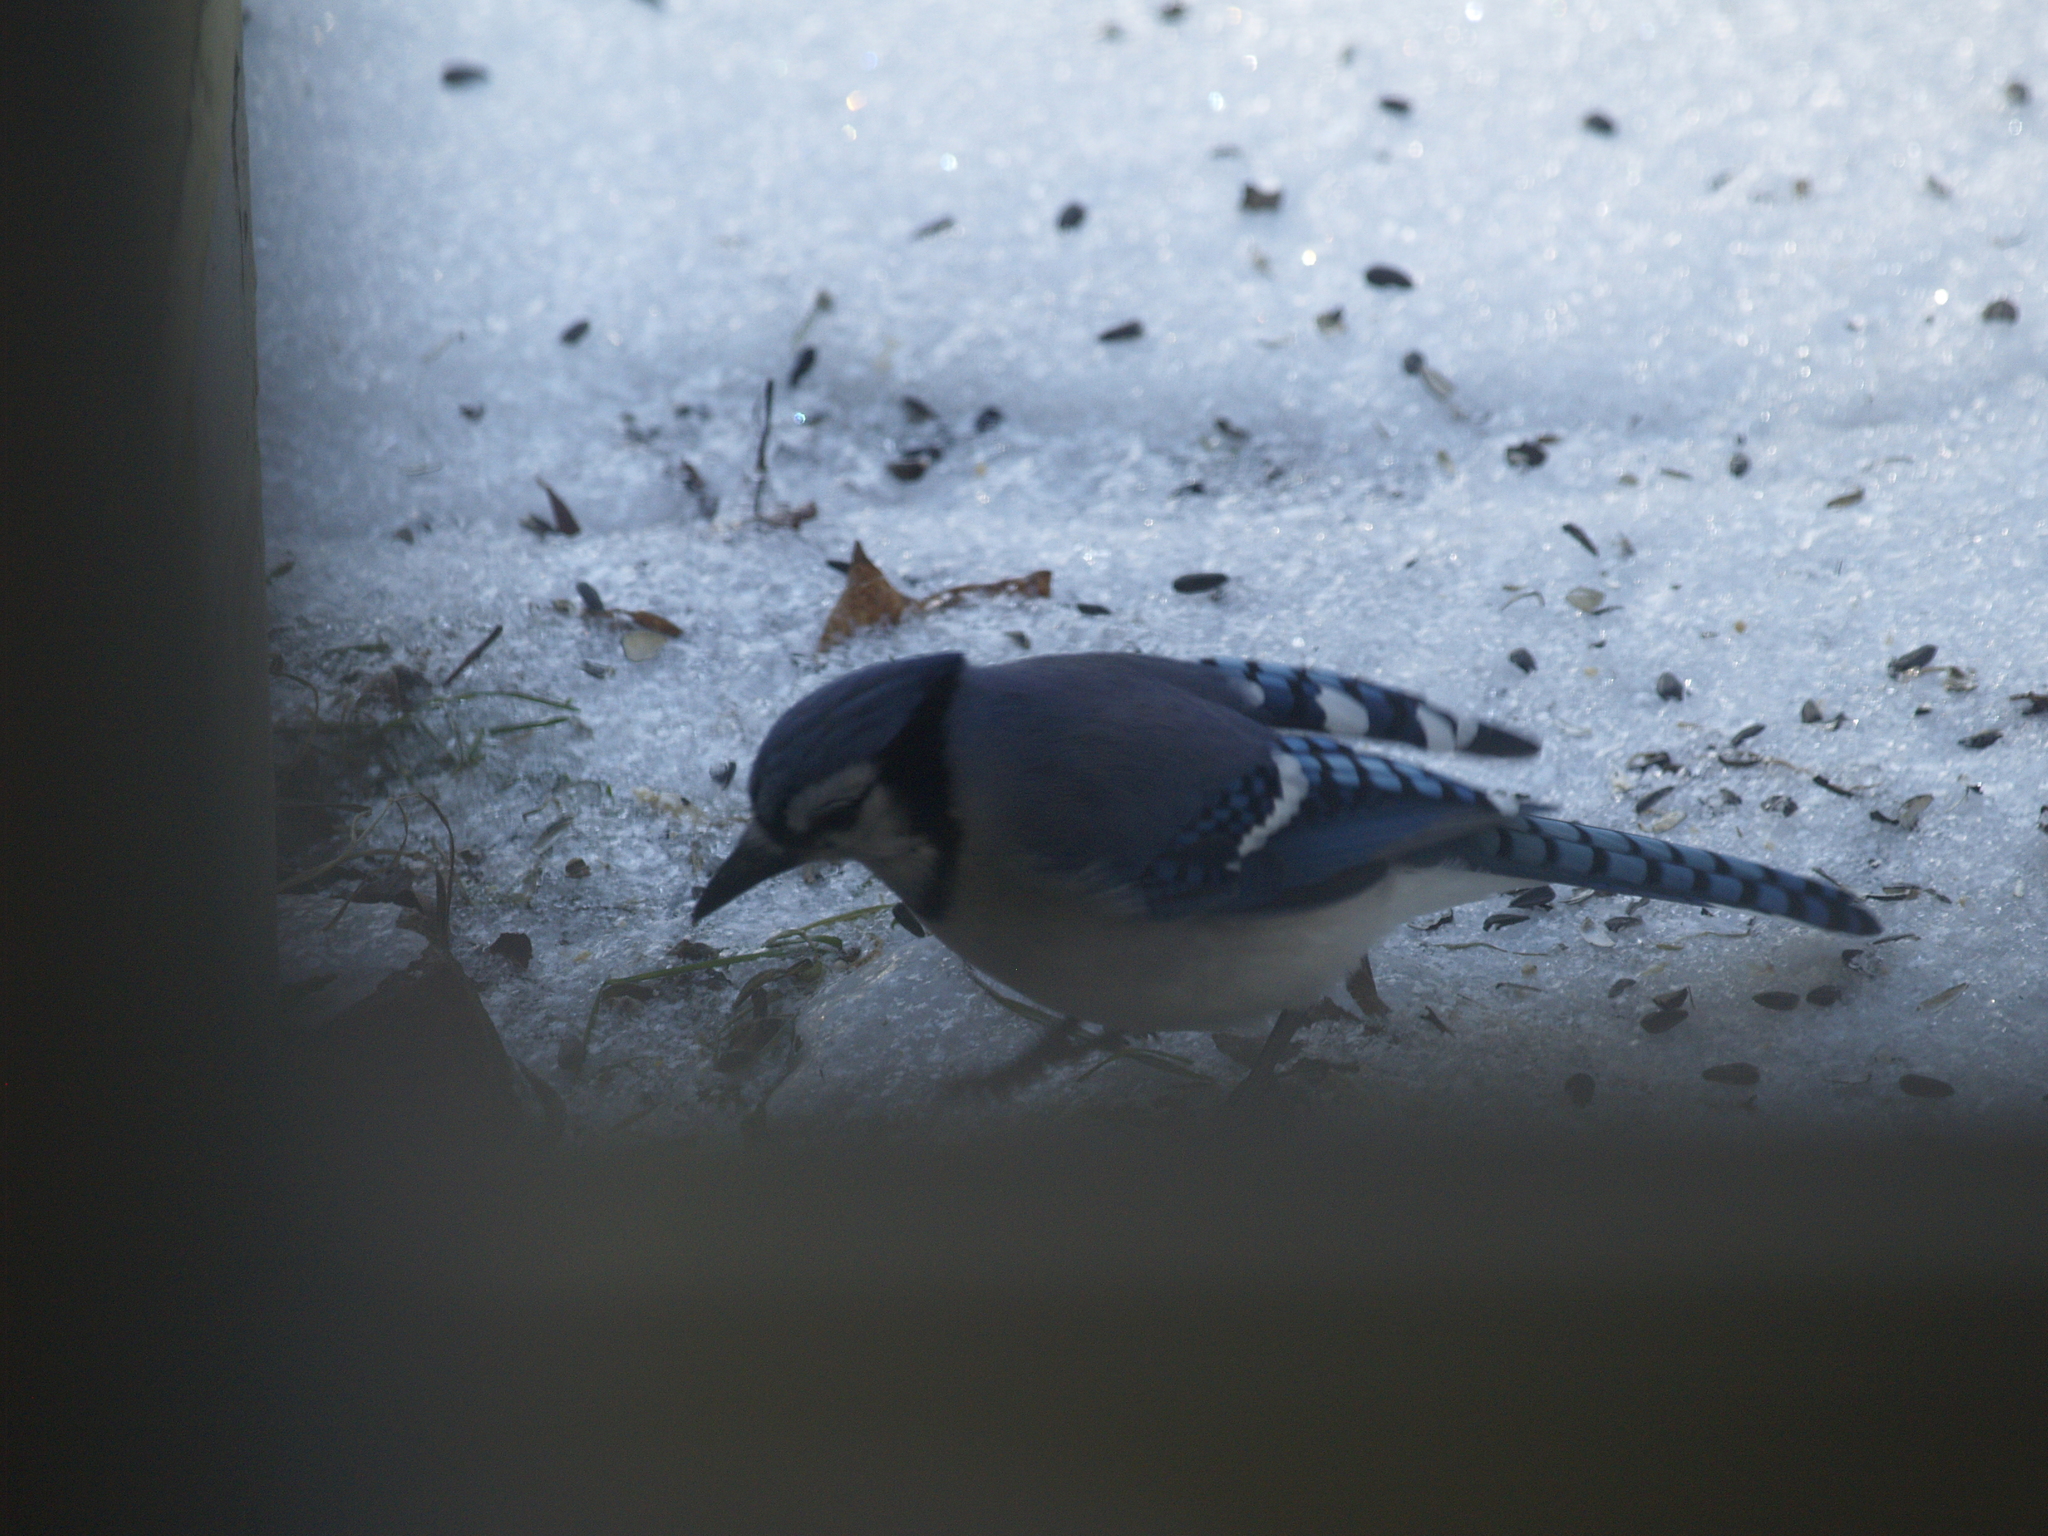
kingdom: Animalia
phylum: Chordata
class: Aves
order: Passeriformes
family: Corvidae
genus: Cyanocitta
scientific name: Cyanocitta cristata
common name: Blue jay
